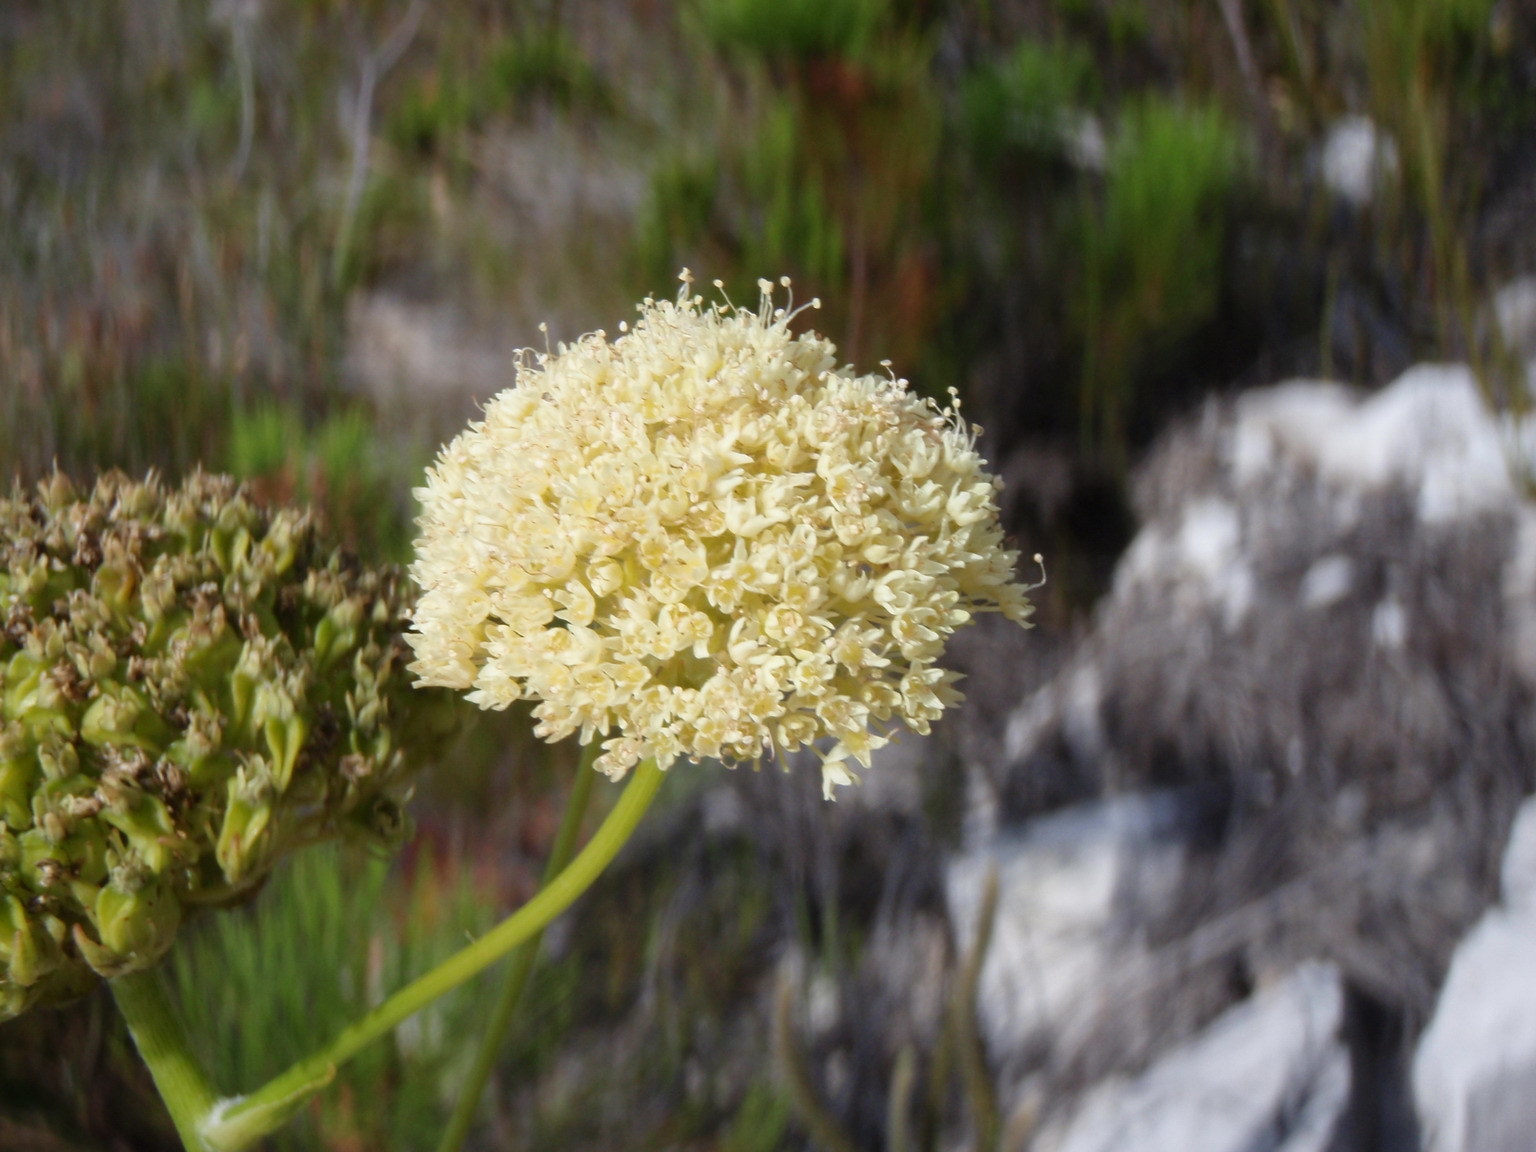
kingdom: Plantae
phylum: Tracheophyta
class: Magnoliopsida
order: Apiales
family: Apiaceae
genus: Hermas
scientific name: Hermas villosa
